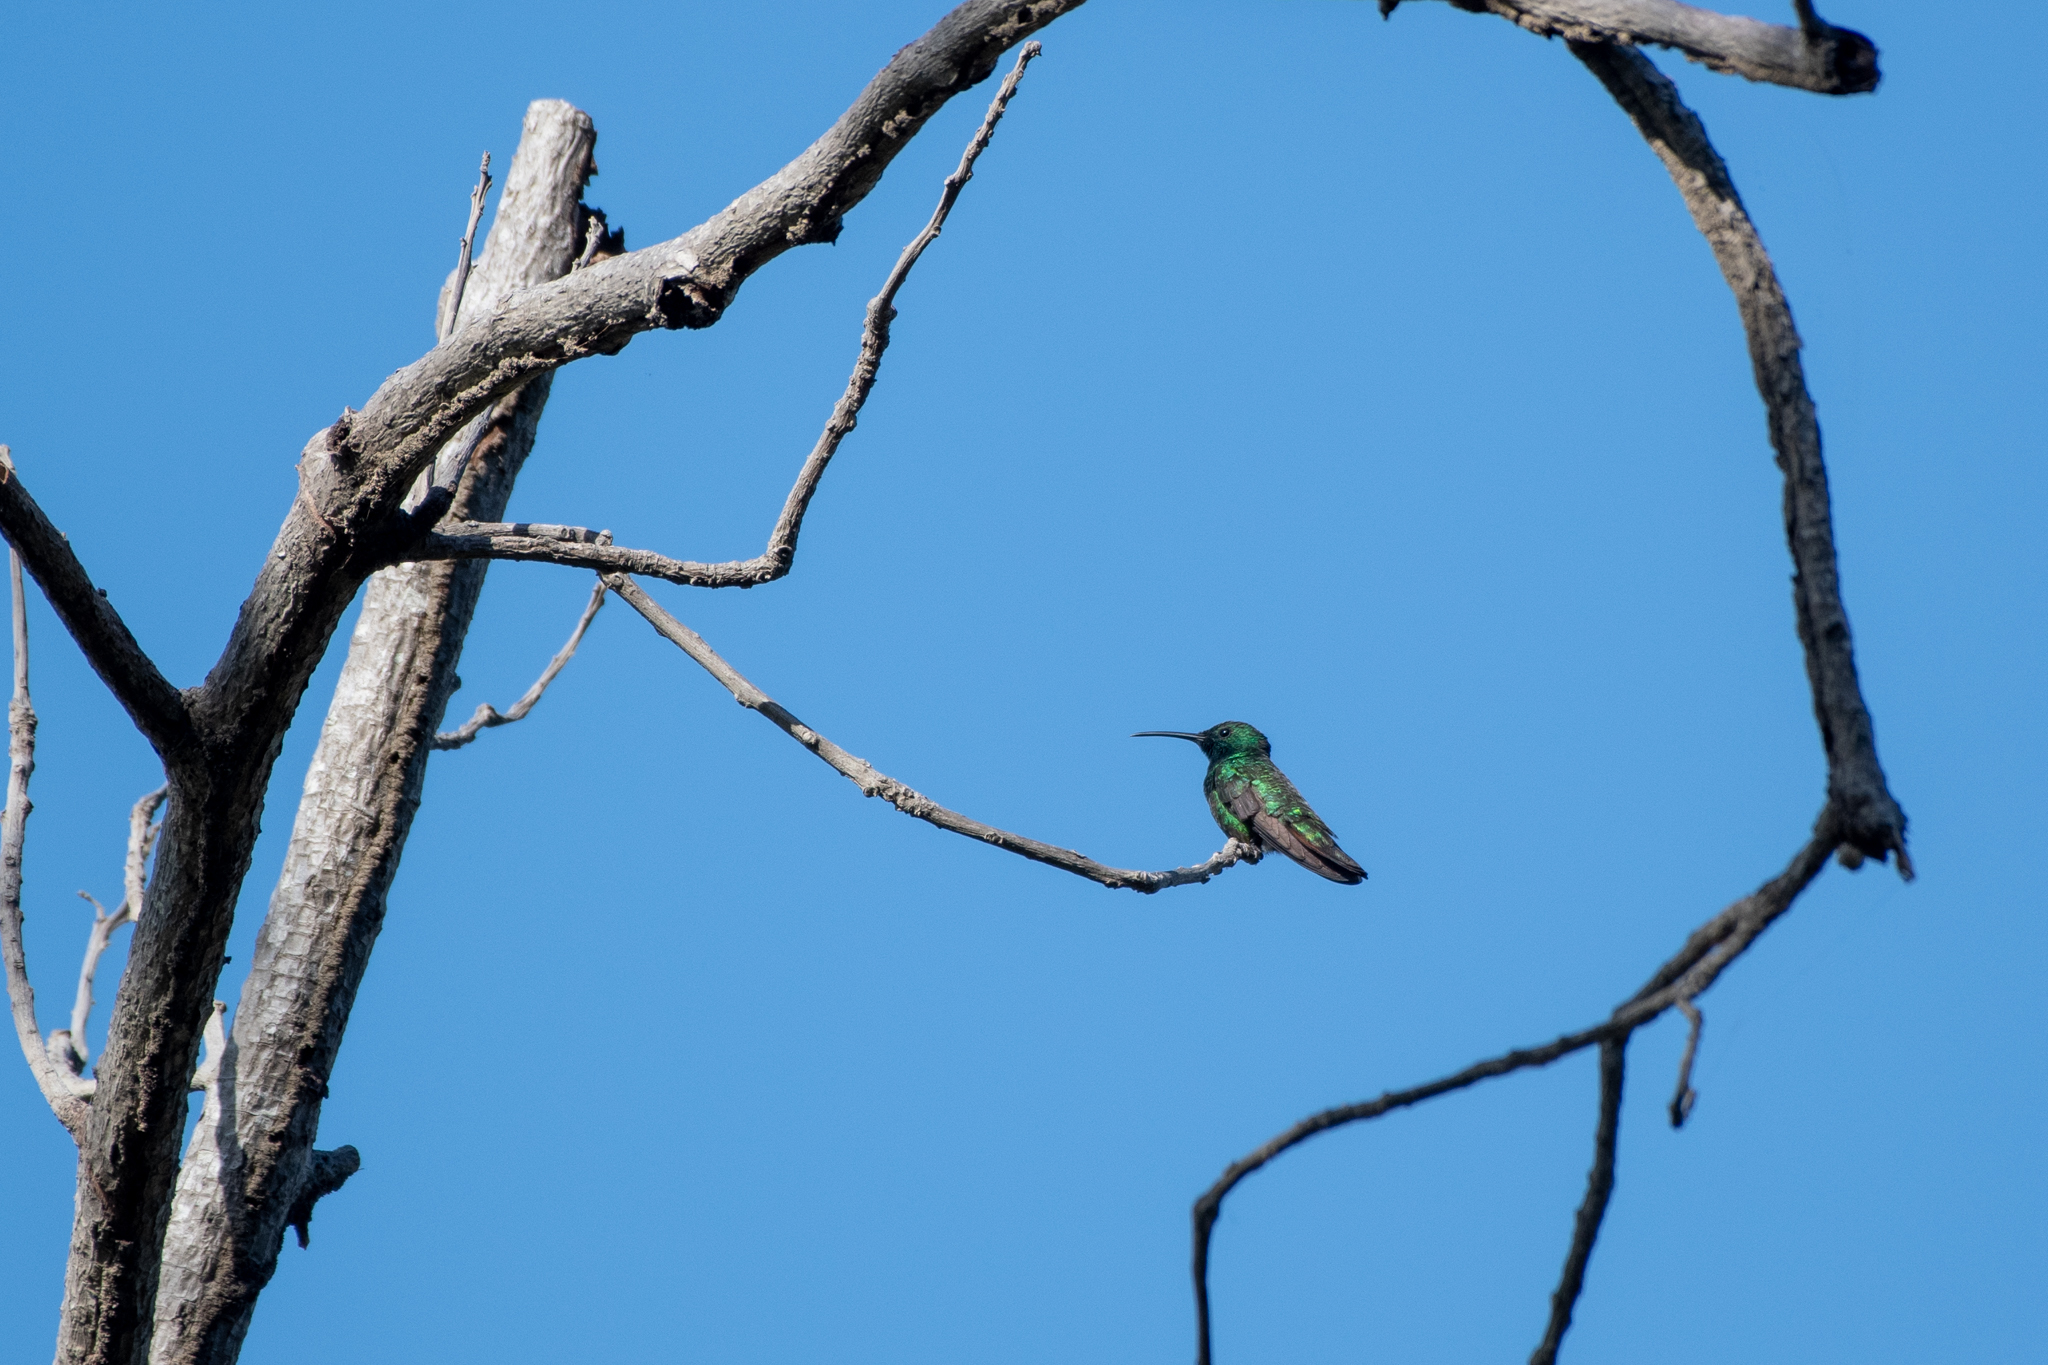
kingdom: Animalia
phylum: Chordata
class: Aves
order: Apodiformes
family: Trochilidae
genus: Anthracothorax
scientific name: Anthracothorax prevostii
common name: Green-breasted mango
